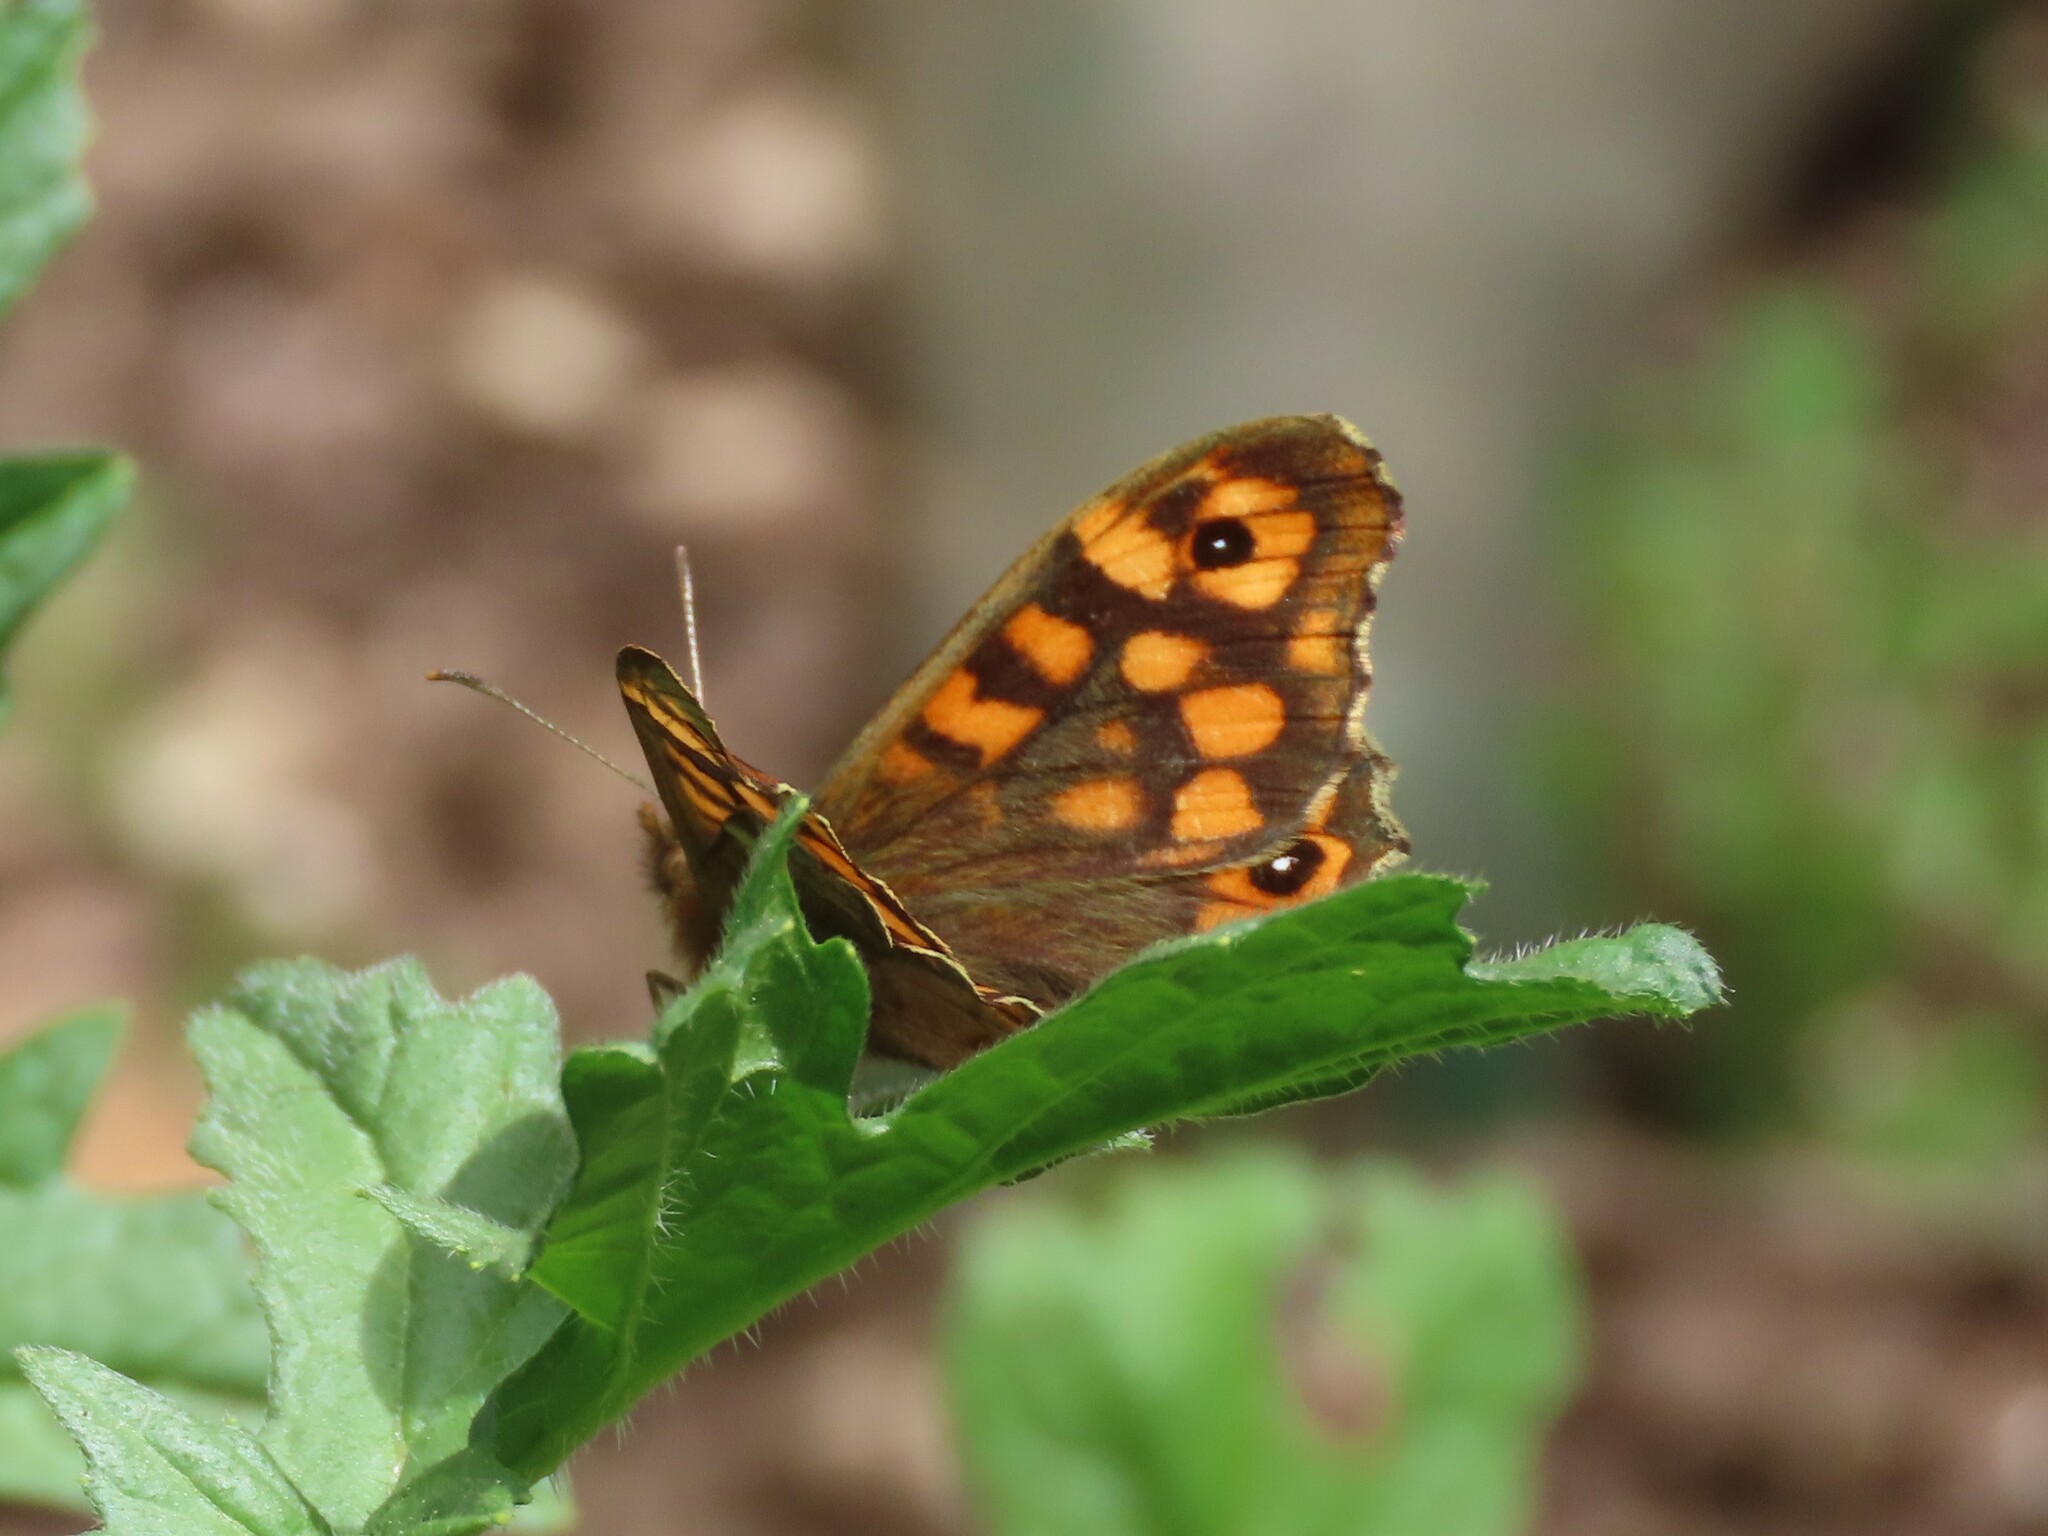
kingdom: Animalia
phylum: Arthropoda
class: Insecta
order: Lepidoptera
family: Nymphalidae
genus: Pararge
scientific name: Pararge aegeria
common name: Speckled wood
